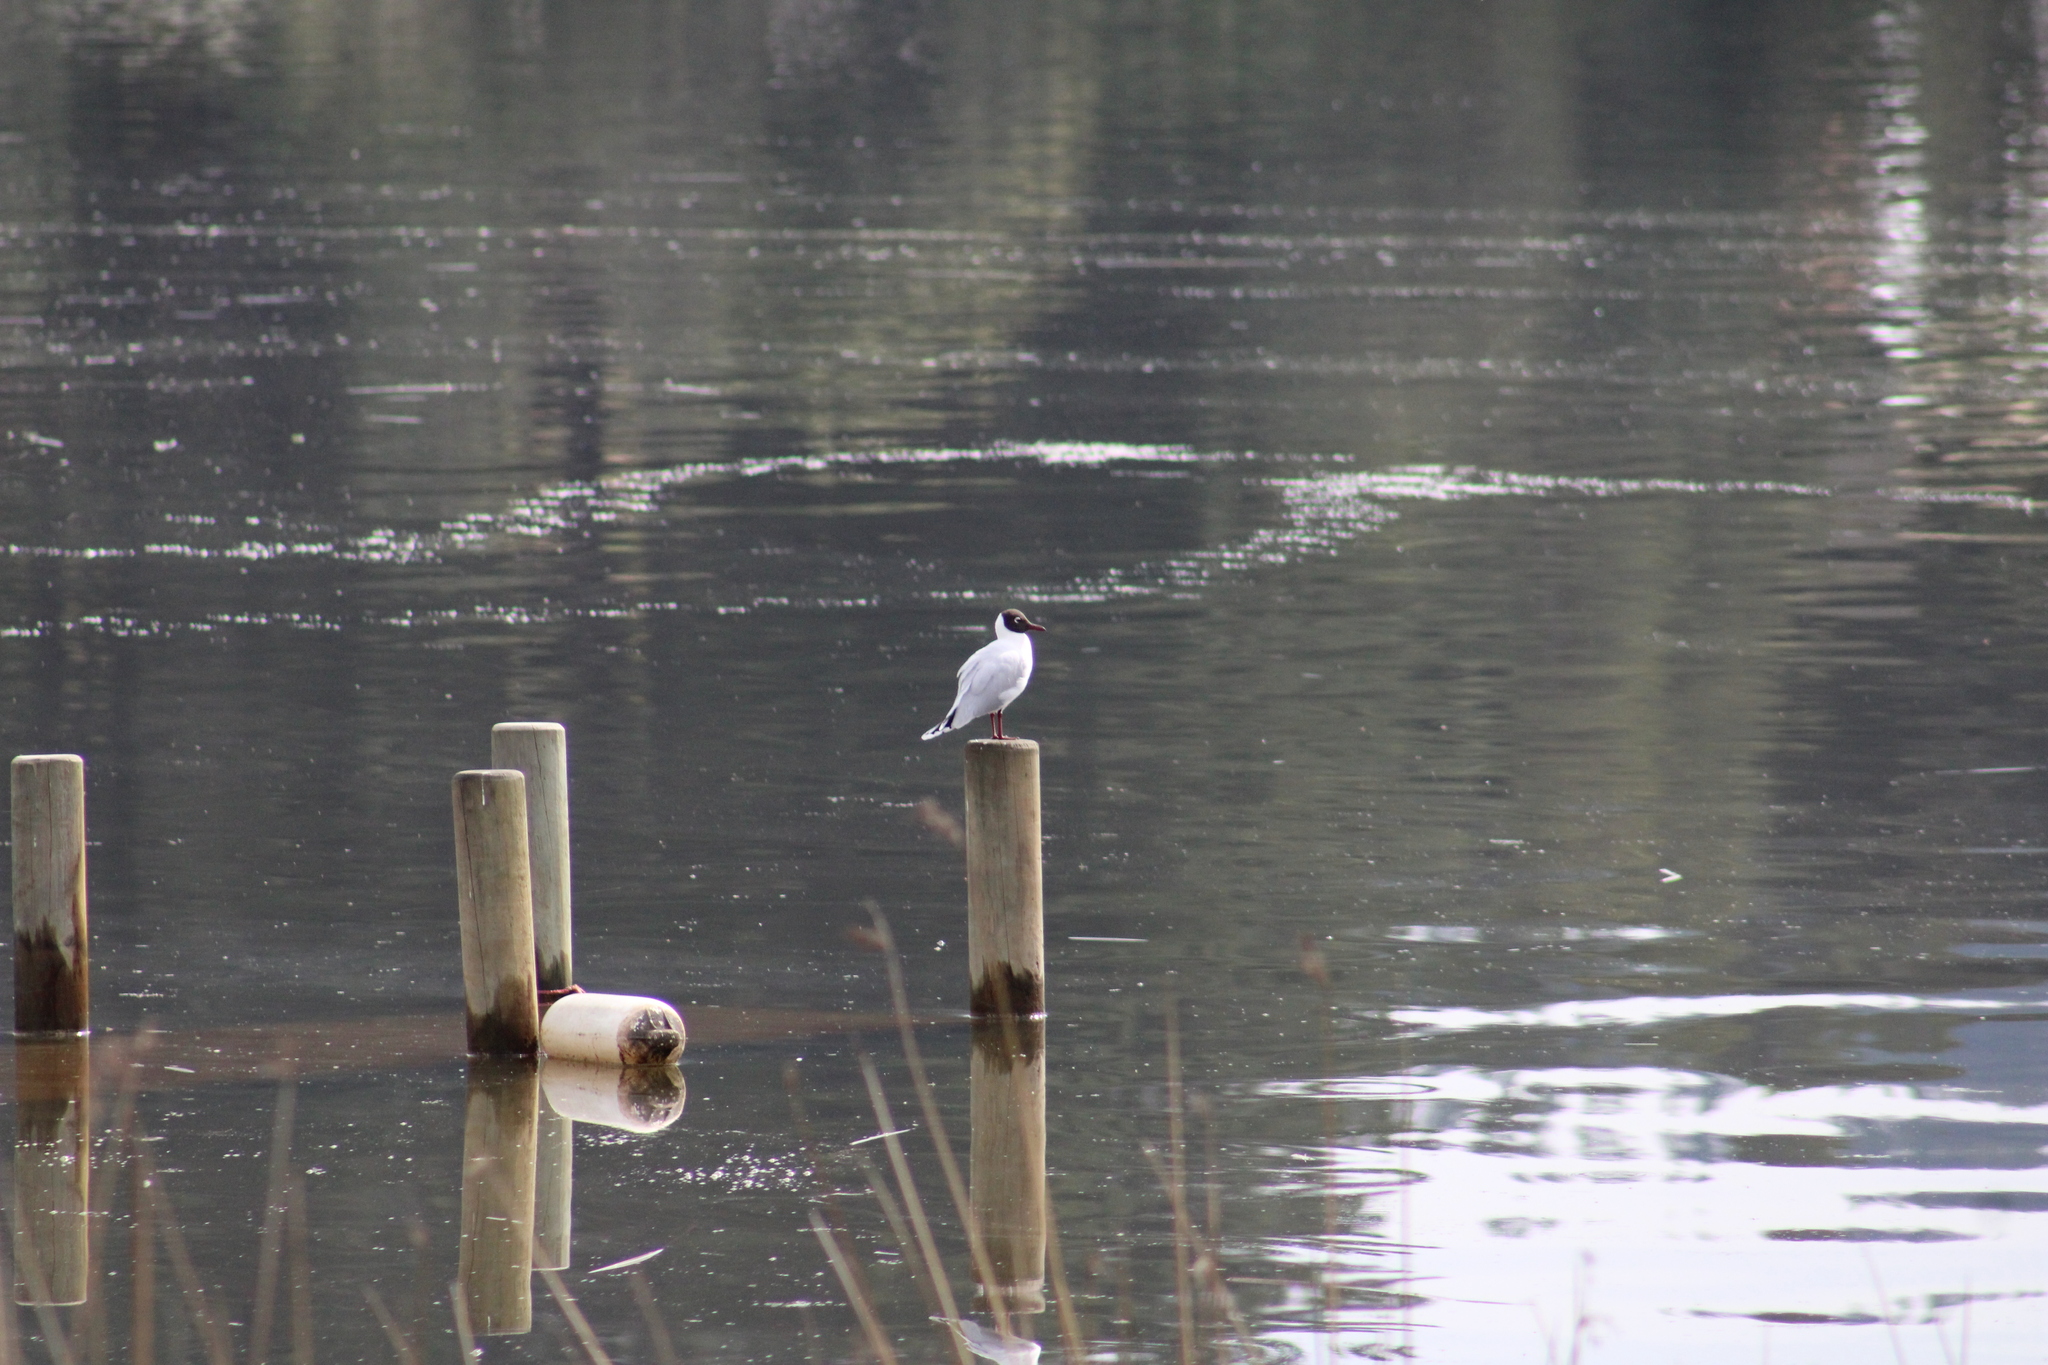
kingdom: Animalia
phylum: Chordata
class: Aves
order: Charadriiformes
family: Laridae
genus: Chroicocephalus
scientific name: Chroicocephalus maculipennis
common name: Brown-hooded gull
